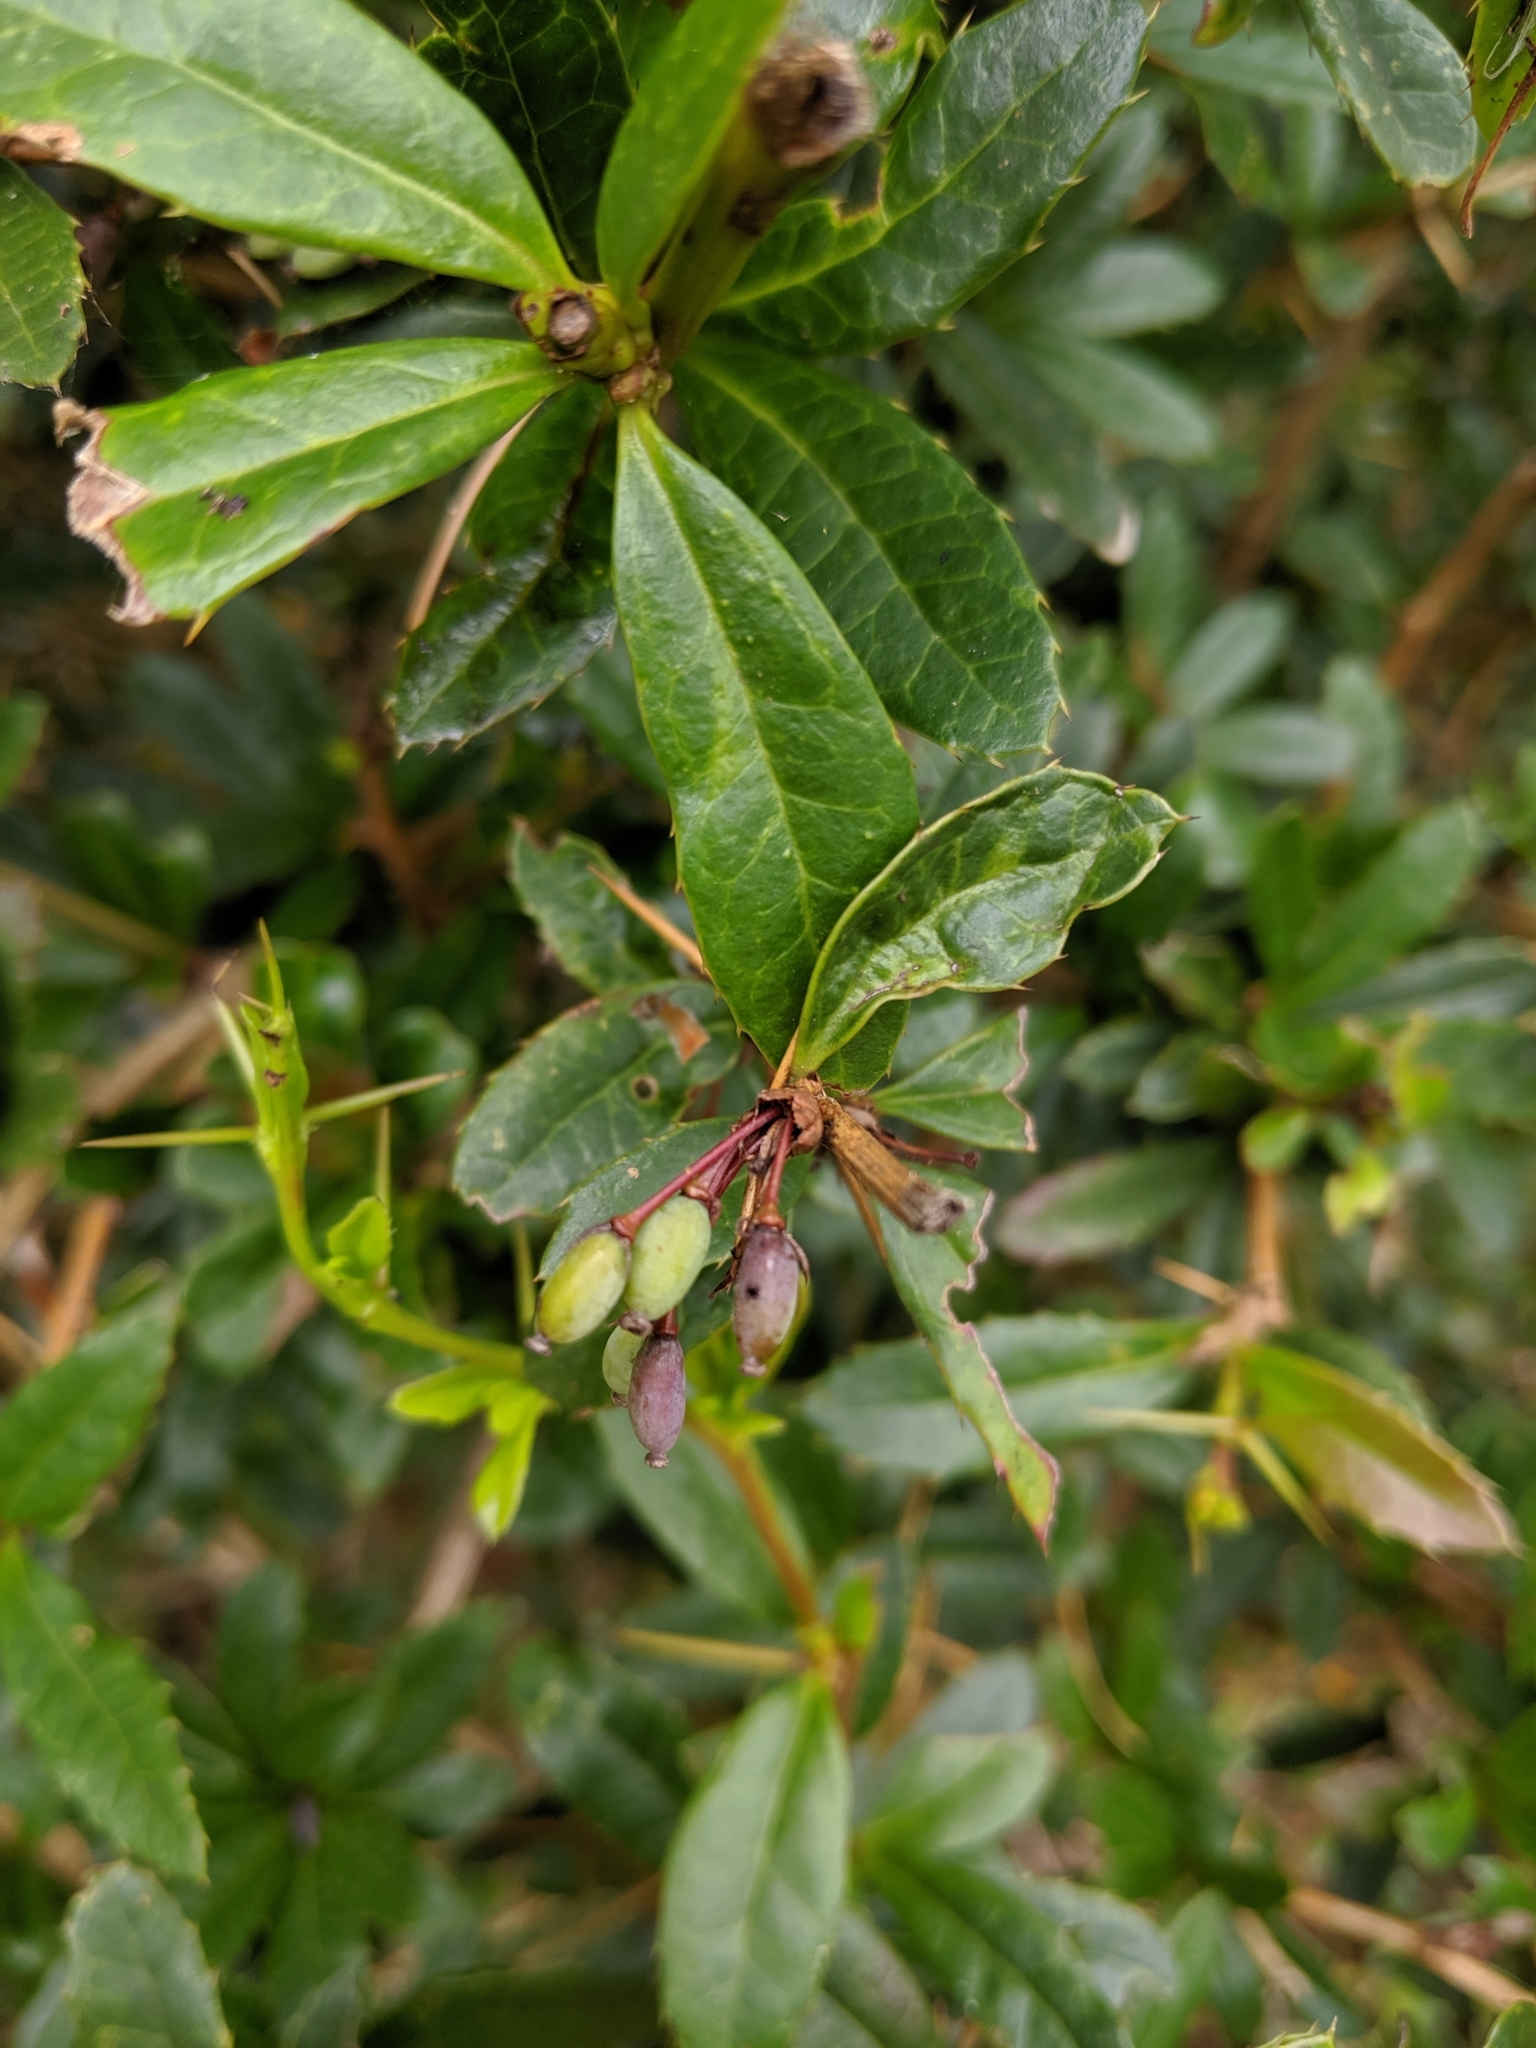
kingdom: Plantae
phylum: Tracheophyta
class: Magnoliopsida
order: Ranunculales
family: Berberidaceae
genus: Berberis
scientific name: Berberis kawakamii
